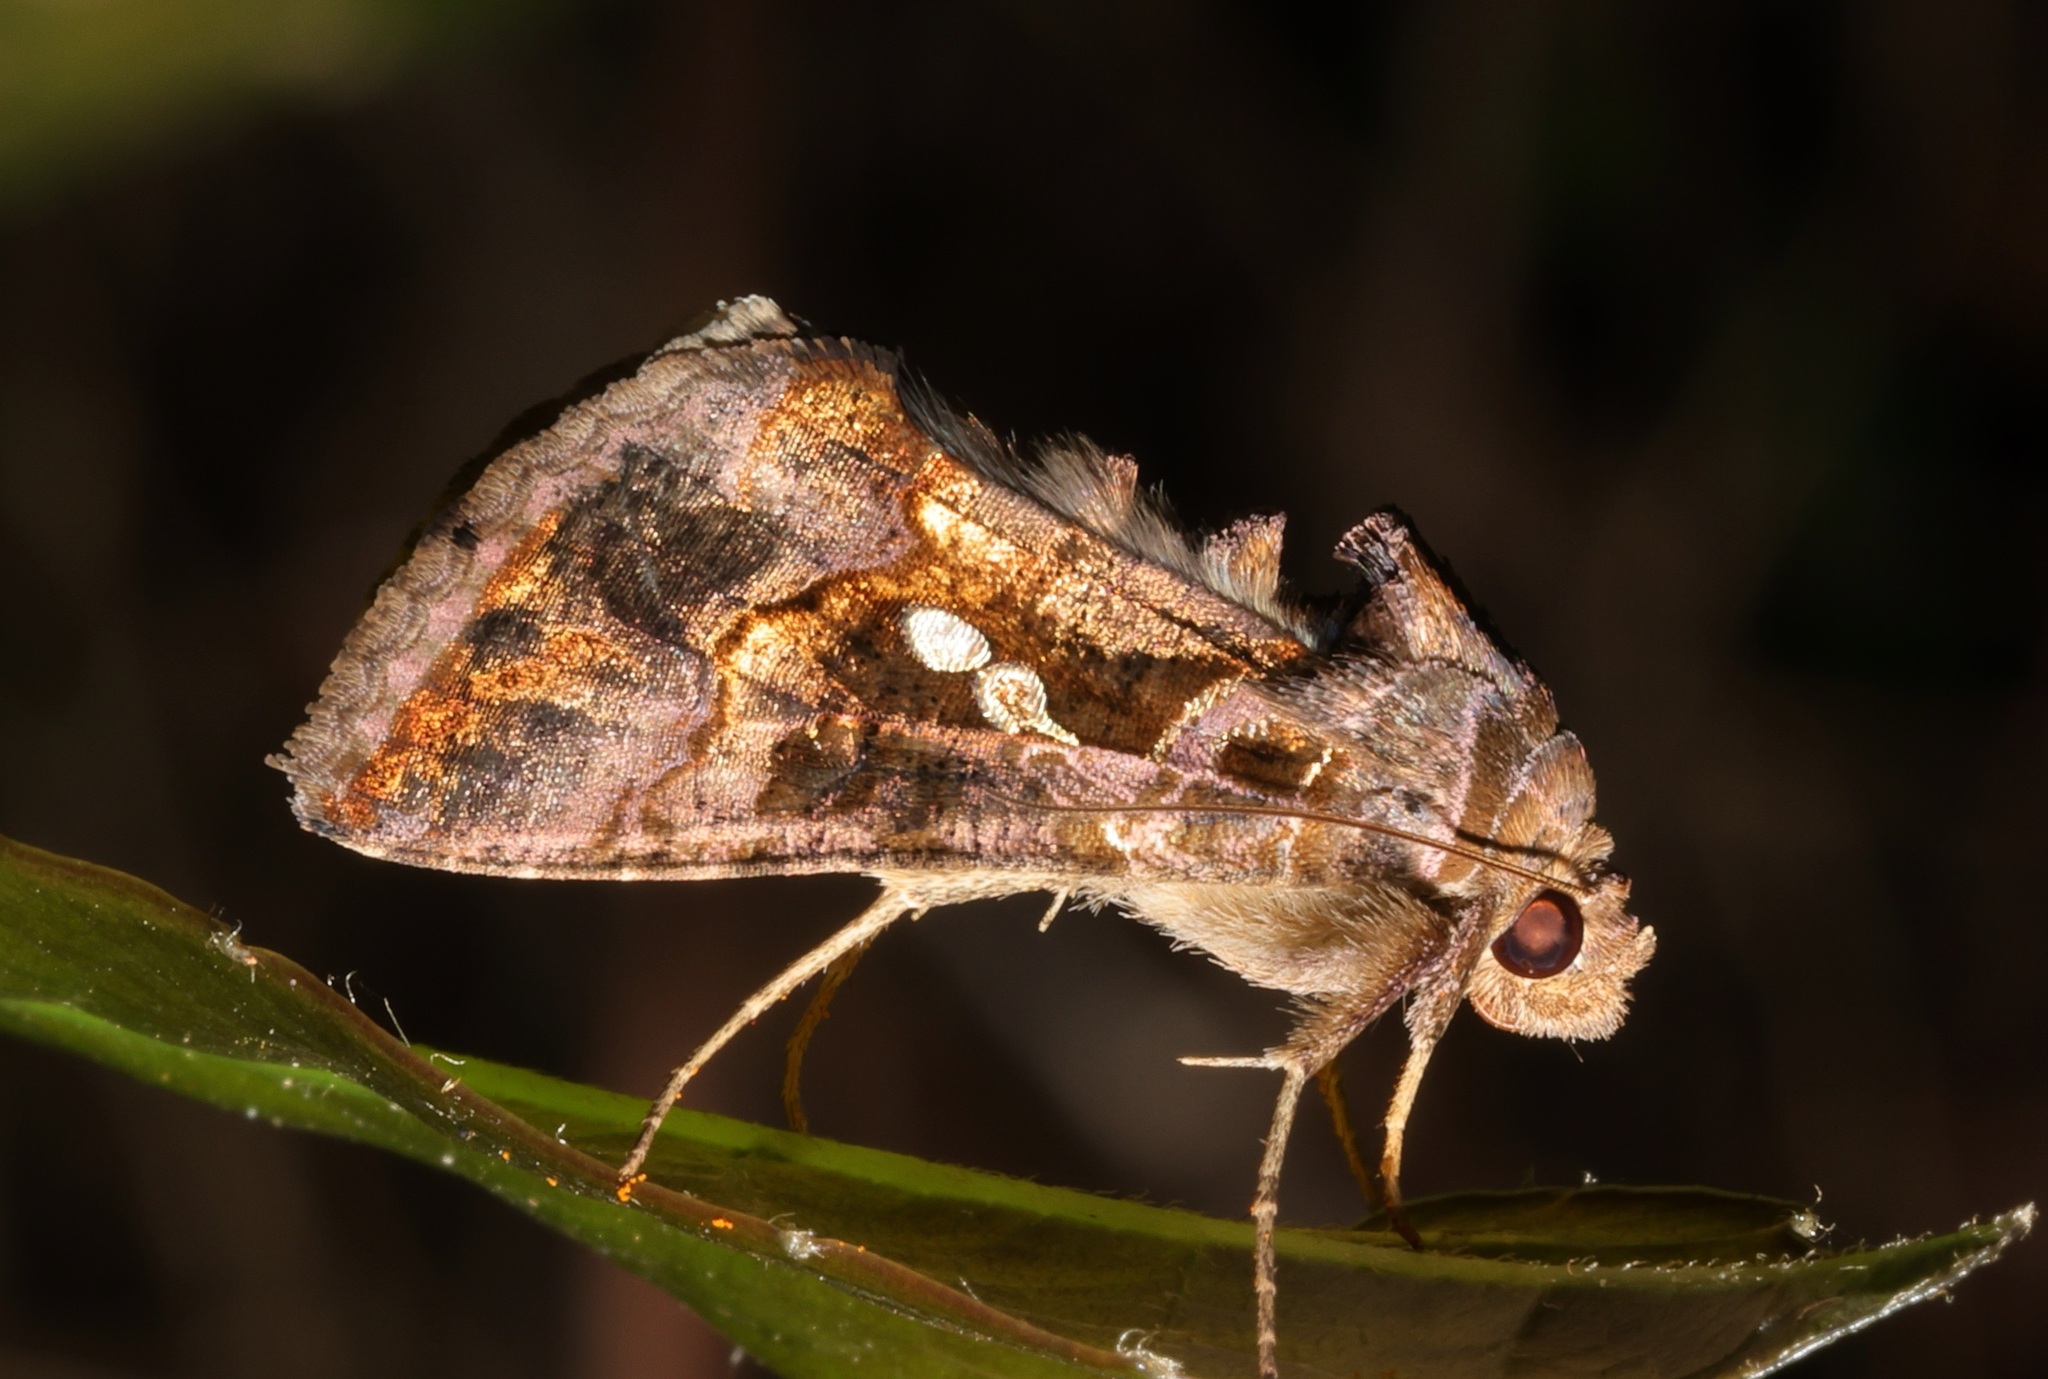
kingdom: Animalia
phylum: Arthropoda
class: Insecta
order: Lepidoptera
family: Noctuidae
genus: Chrysodeixis
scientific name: Chrysodeixis eriosoma
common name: Green garden looper
